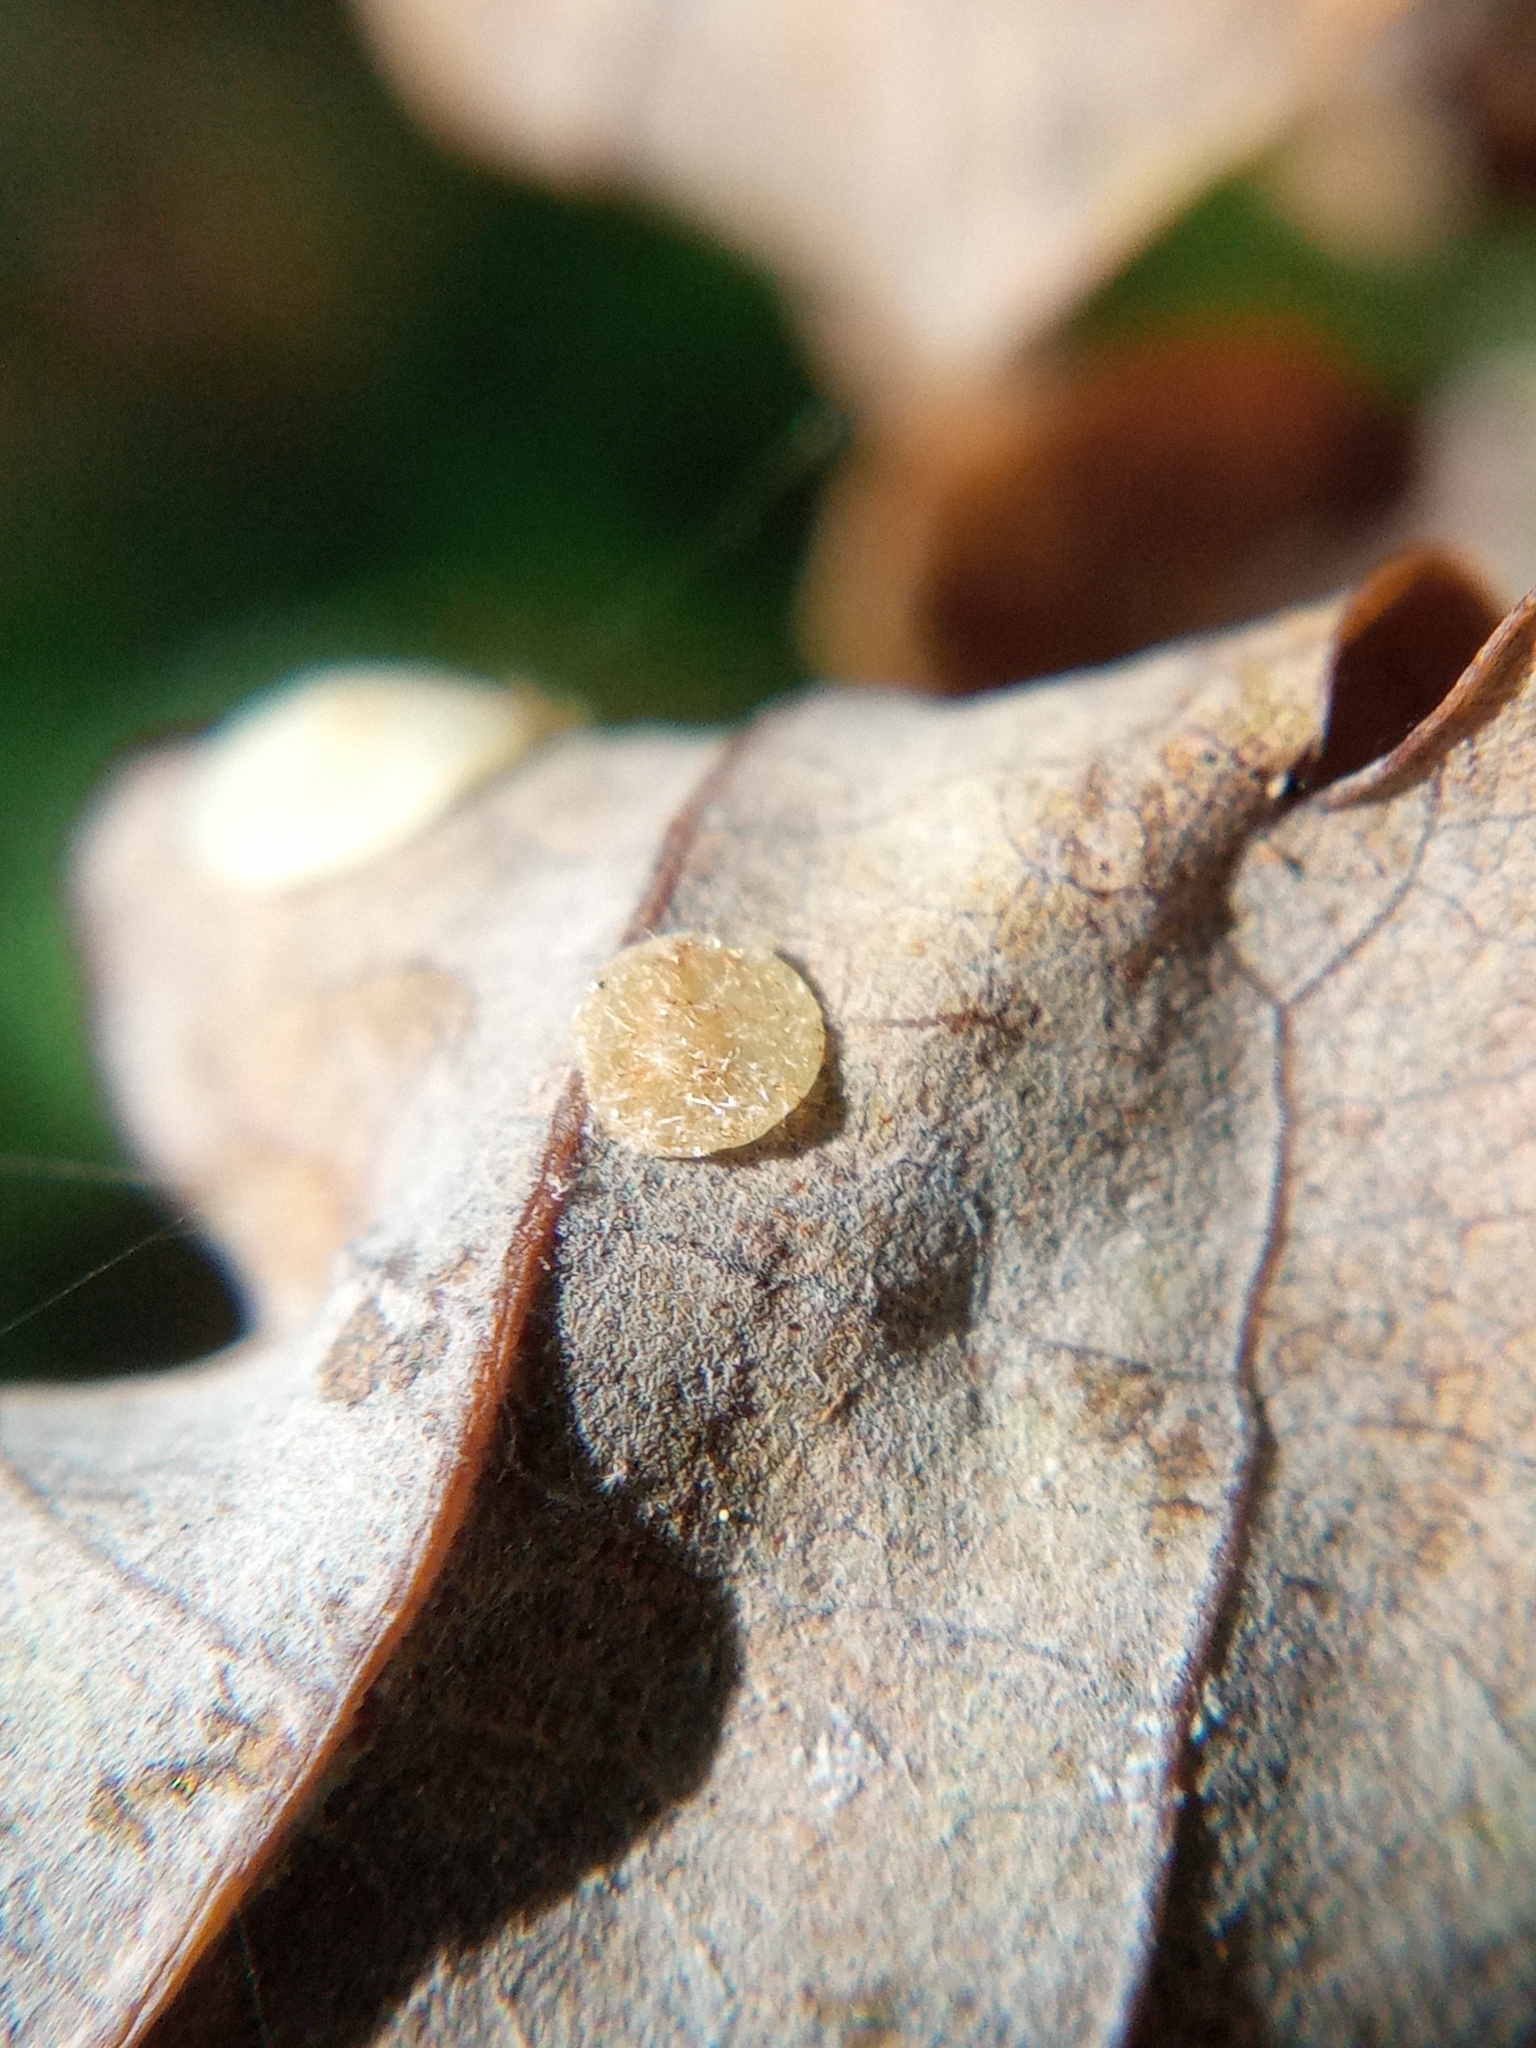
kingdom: Animalia
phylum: Arthropoda
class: Insecta
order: Hymenoptera
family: Cynipidae
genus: Neuroterus
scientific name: Neuroterus quercusbaccarum
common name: Common spangle gall
